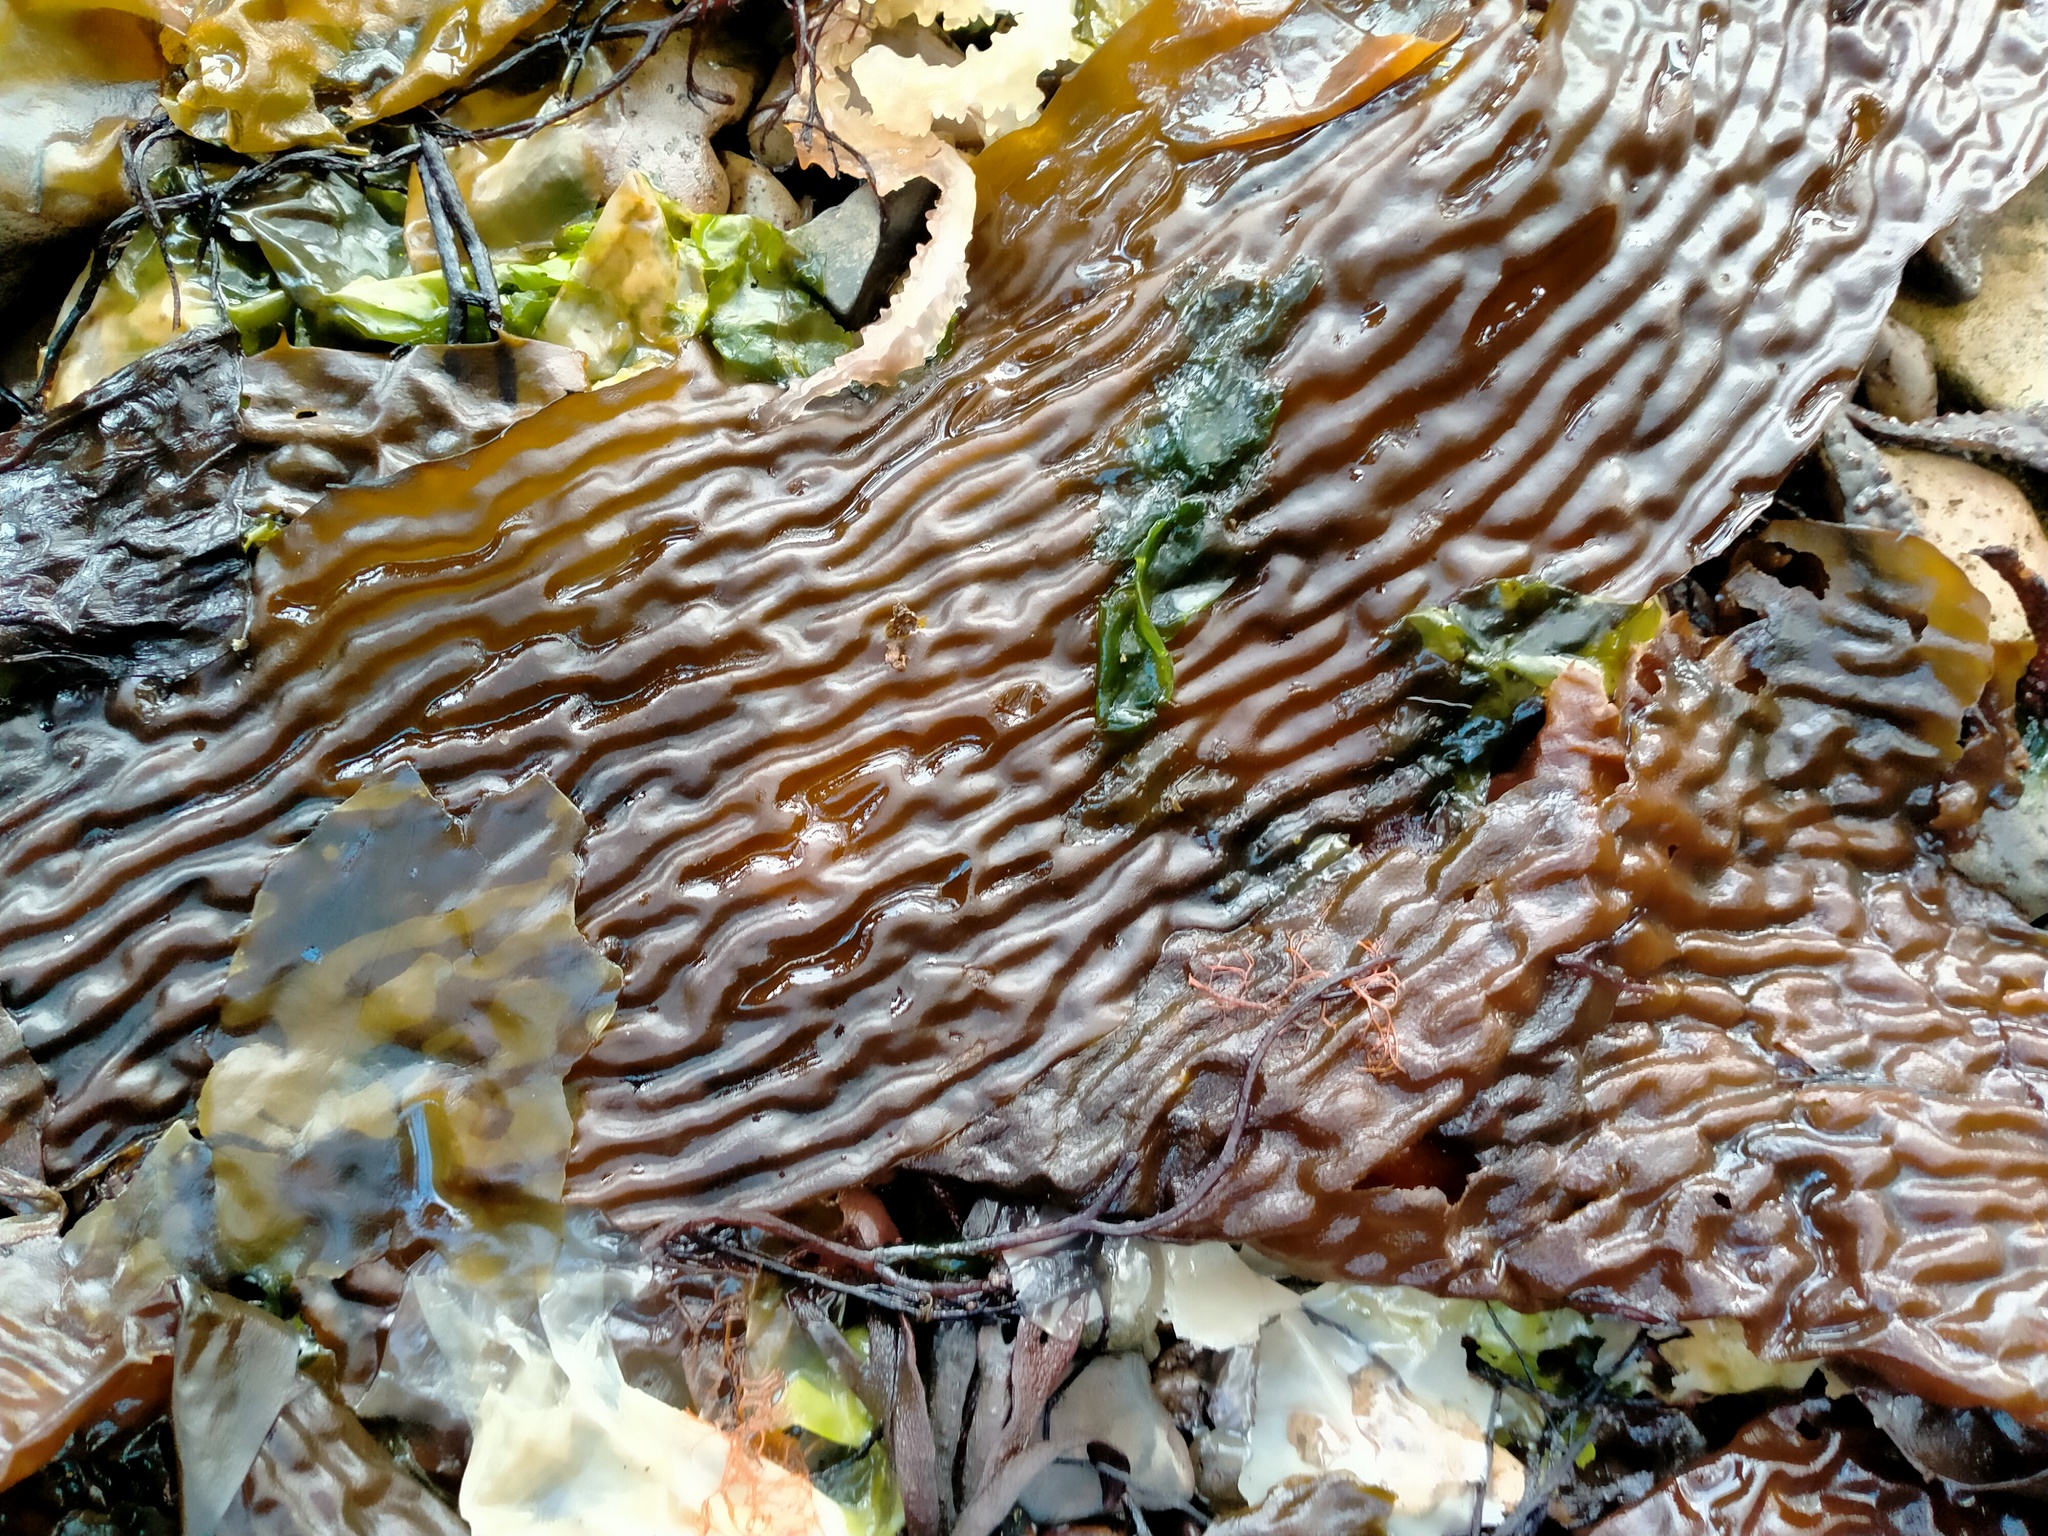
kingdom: Chromista
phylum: Ochrophyta
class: Phaeophyceae
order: Laminariales
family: Laminariaceae
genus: Macrocystis
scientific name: Macrocystis pyrifera
